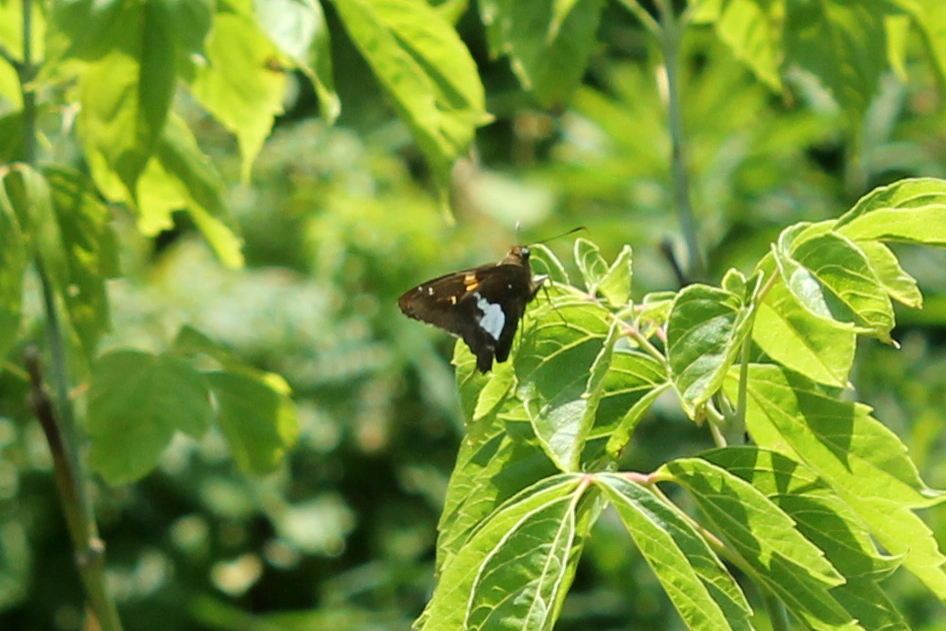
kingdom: Animalia
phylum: Arthropoda
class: Insecta
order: Lepidoptera
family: Hesperiidae
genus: Epargyreus
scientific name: Epargyreus clarus
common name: Silver-spotted skipper
